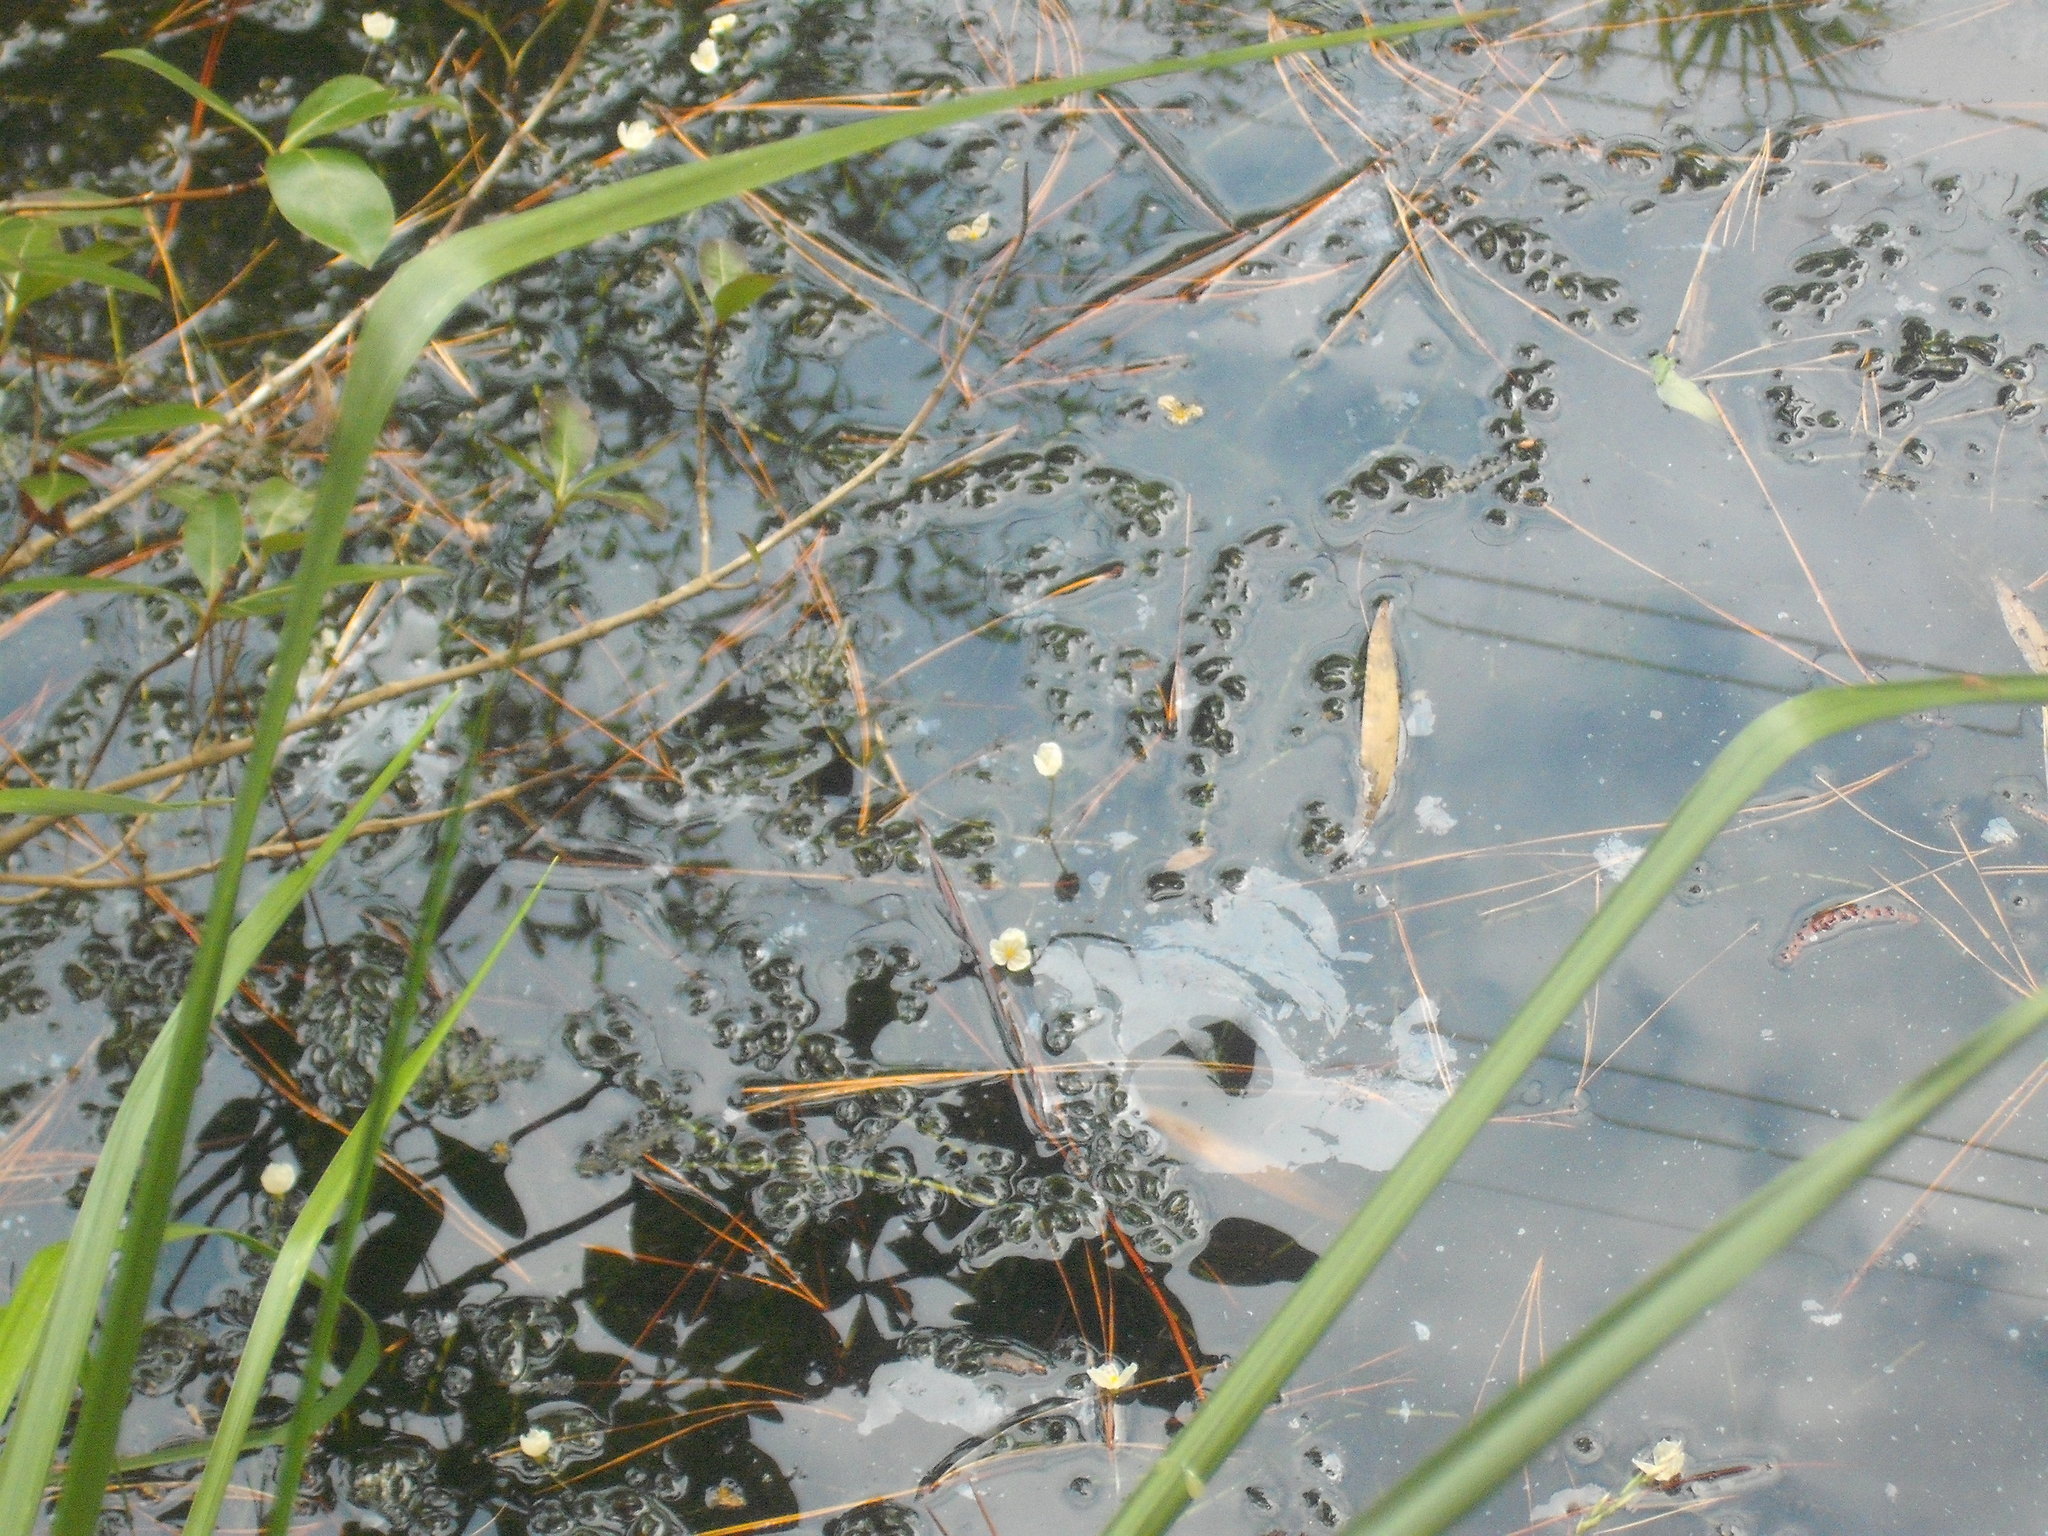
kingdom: Plantae
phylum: Tracheophyta
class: Liliopsida
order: Alismatales
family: Hydrocharitaceae
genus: Elodea
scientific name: Elodea densa
